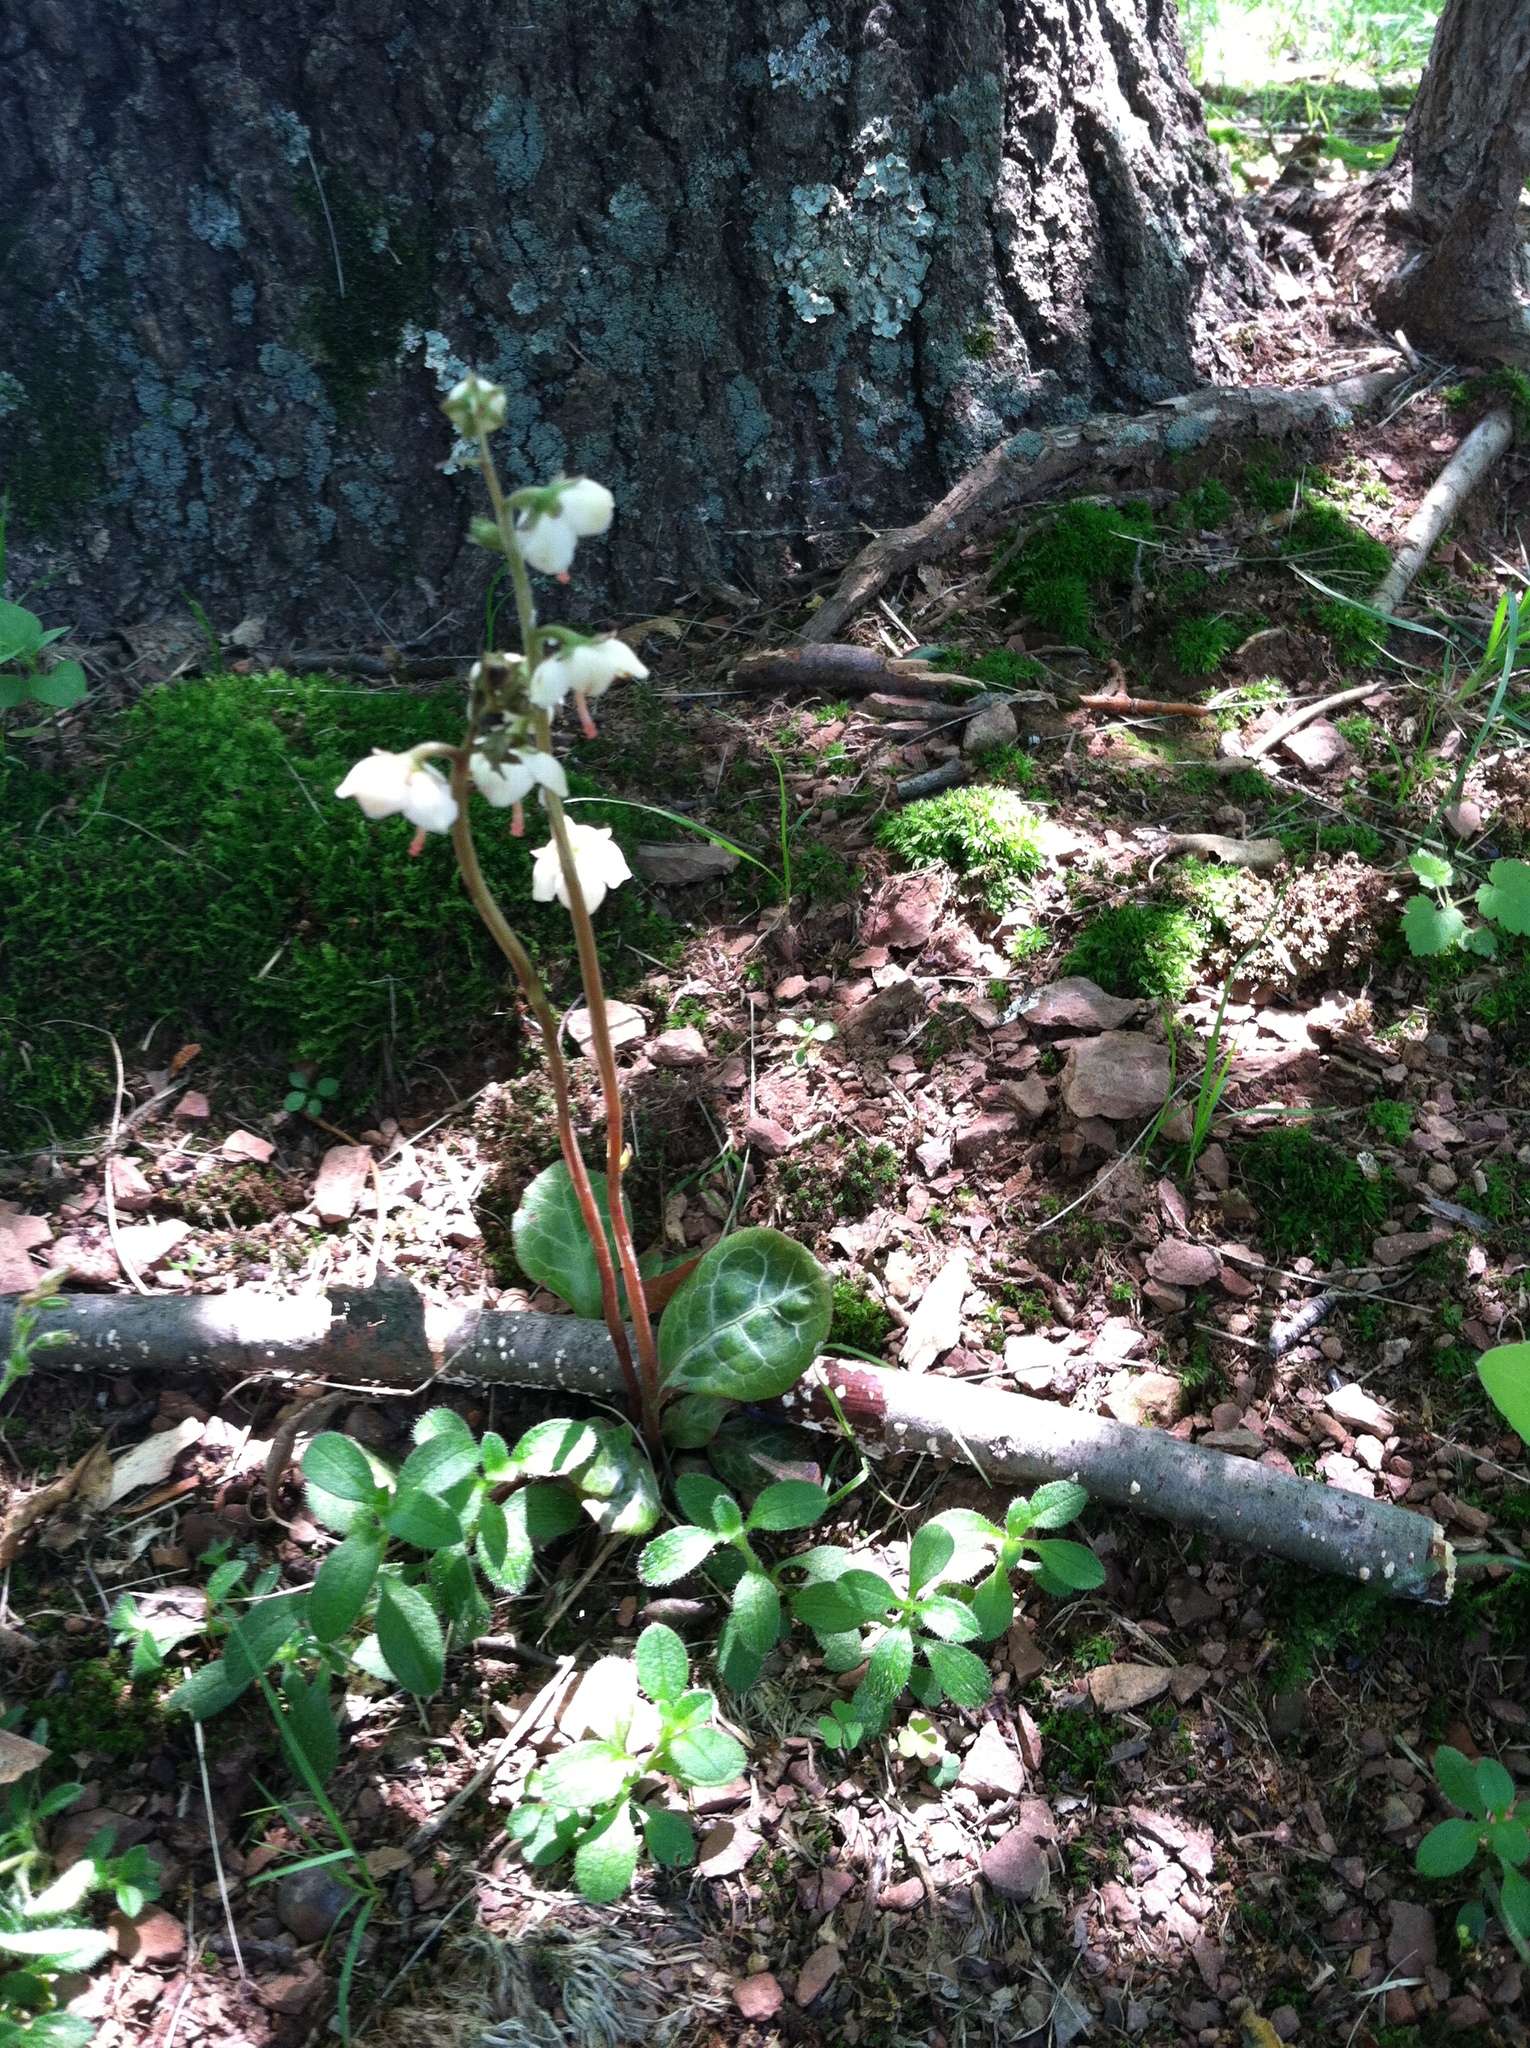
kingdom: Plantae
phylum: Tracheophyta
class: Magnoliopsida
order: Ericales
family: Ericaceae
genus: Pyrola
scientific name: Pyrola americana
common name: American wintergreen
